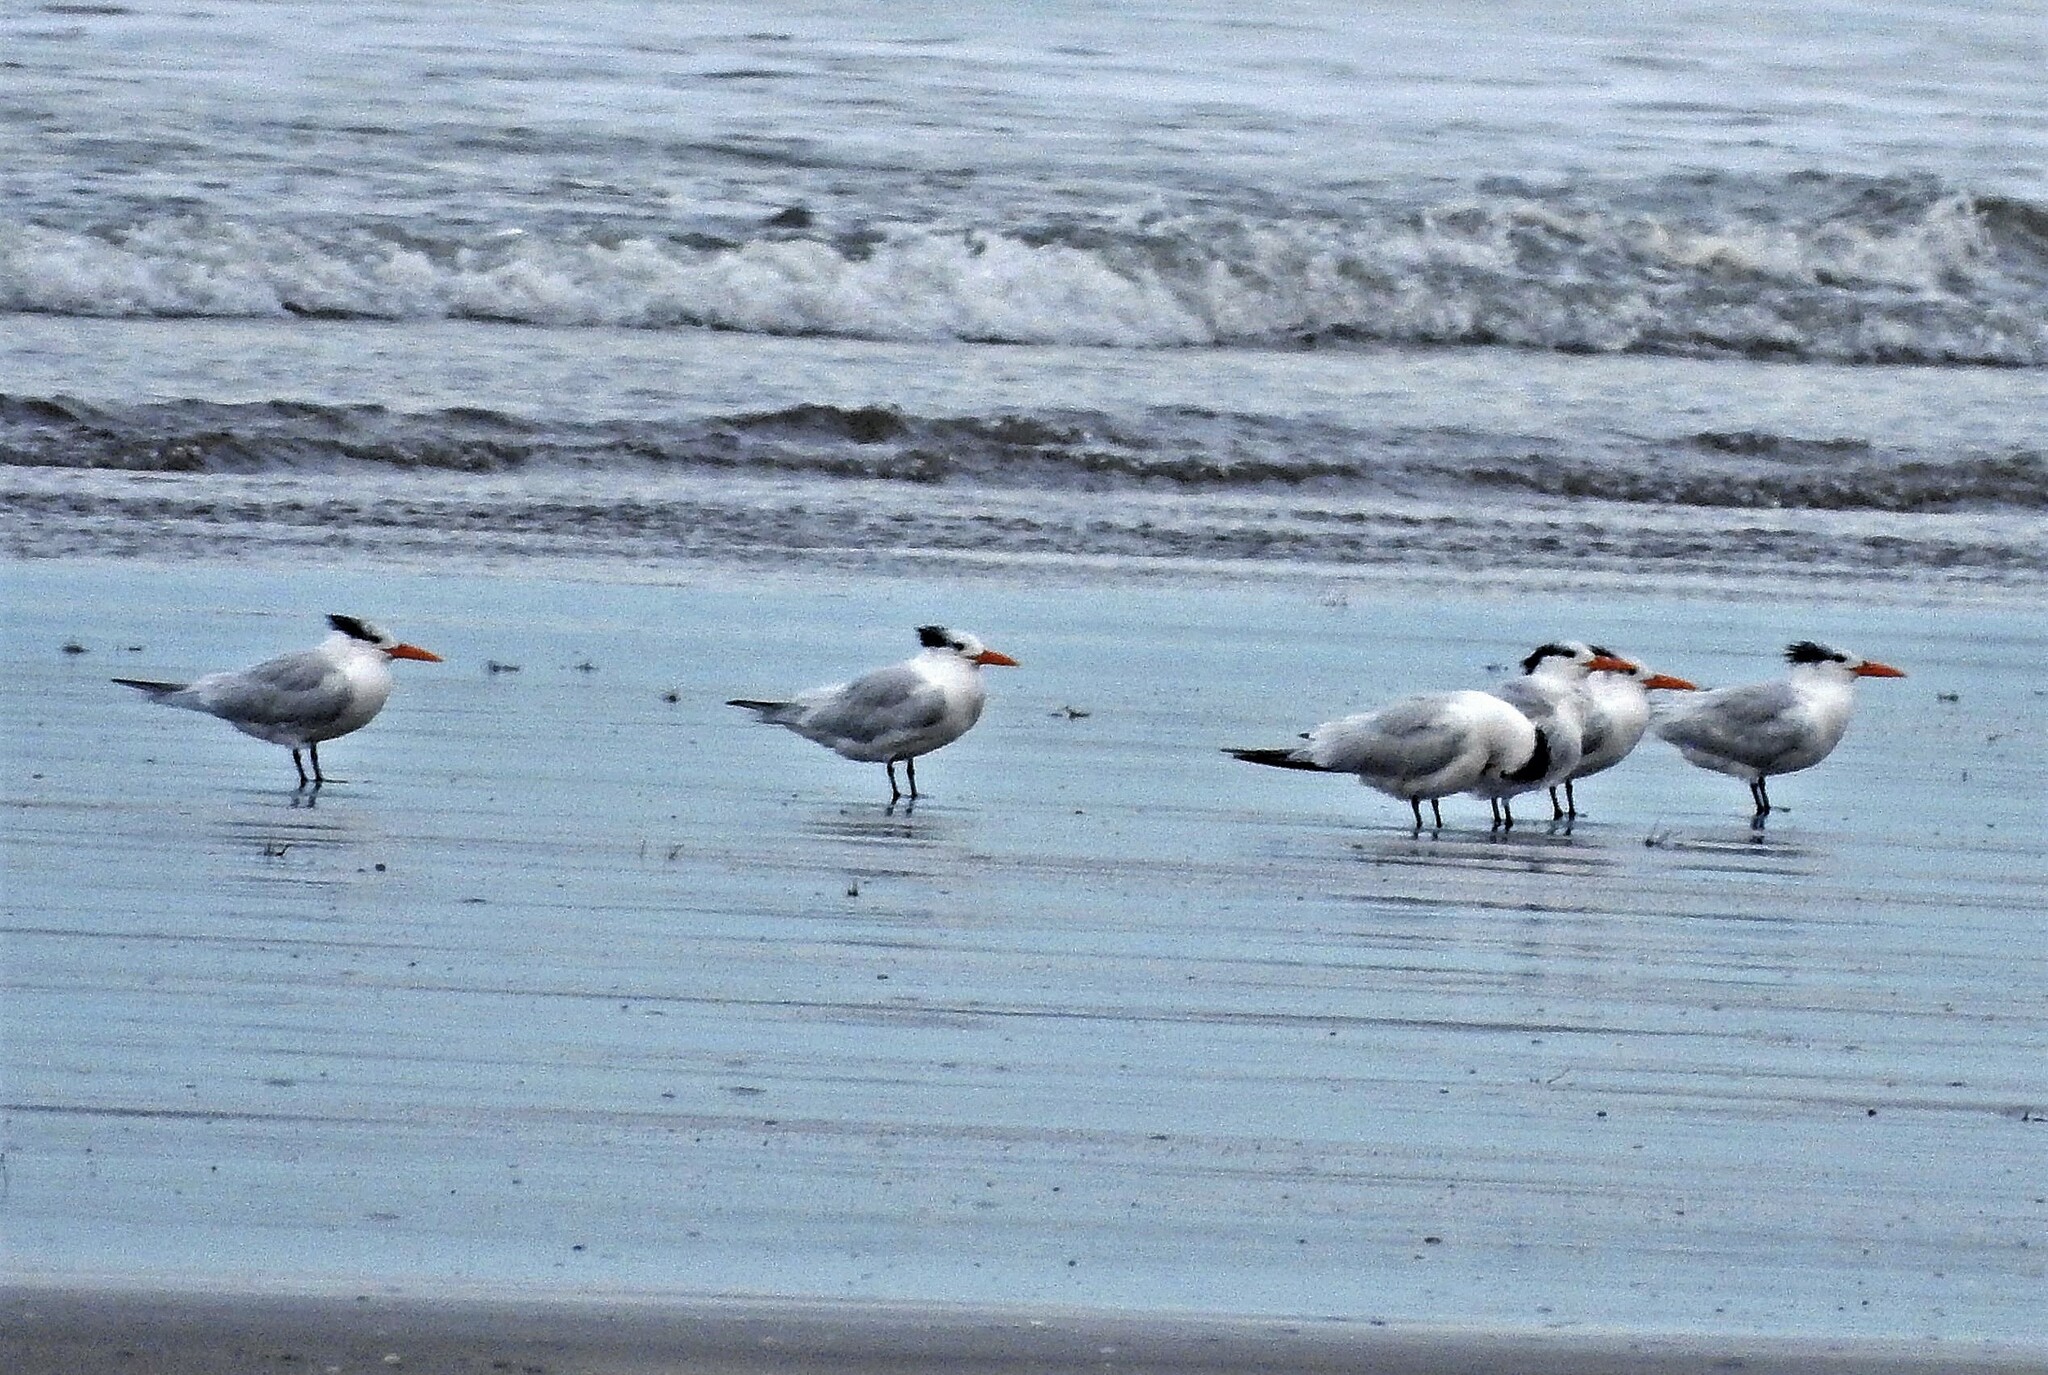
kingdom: Animalia
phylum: Chordata
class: Aves
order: Charadriiformes
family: Laridae
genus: Thalasseus
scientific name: Thalasseus maximus
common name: Royal tern
